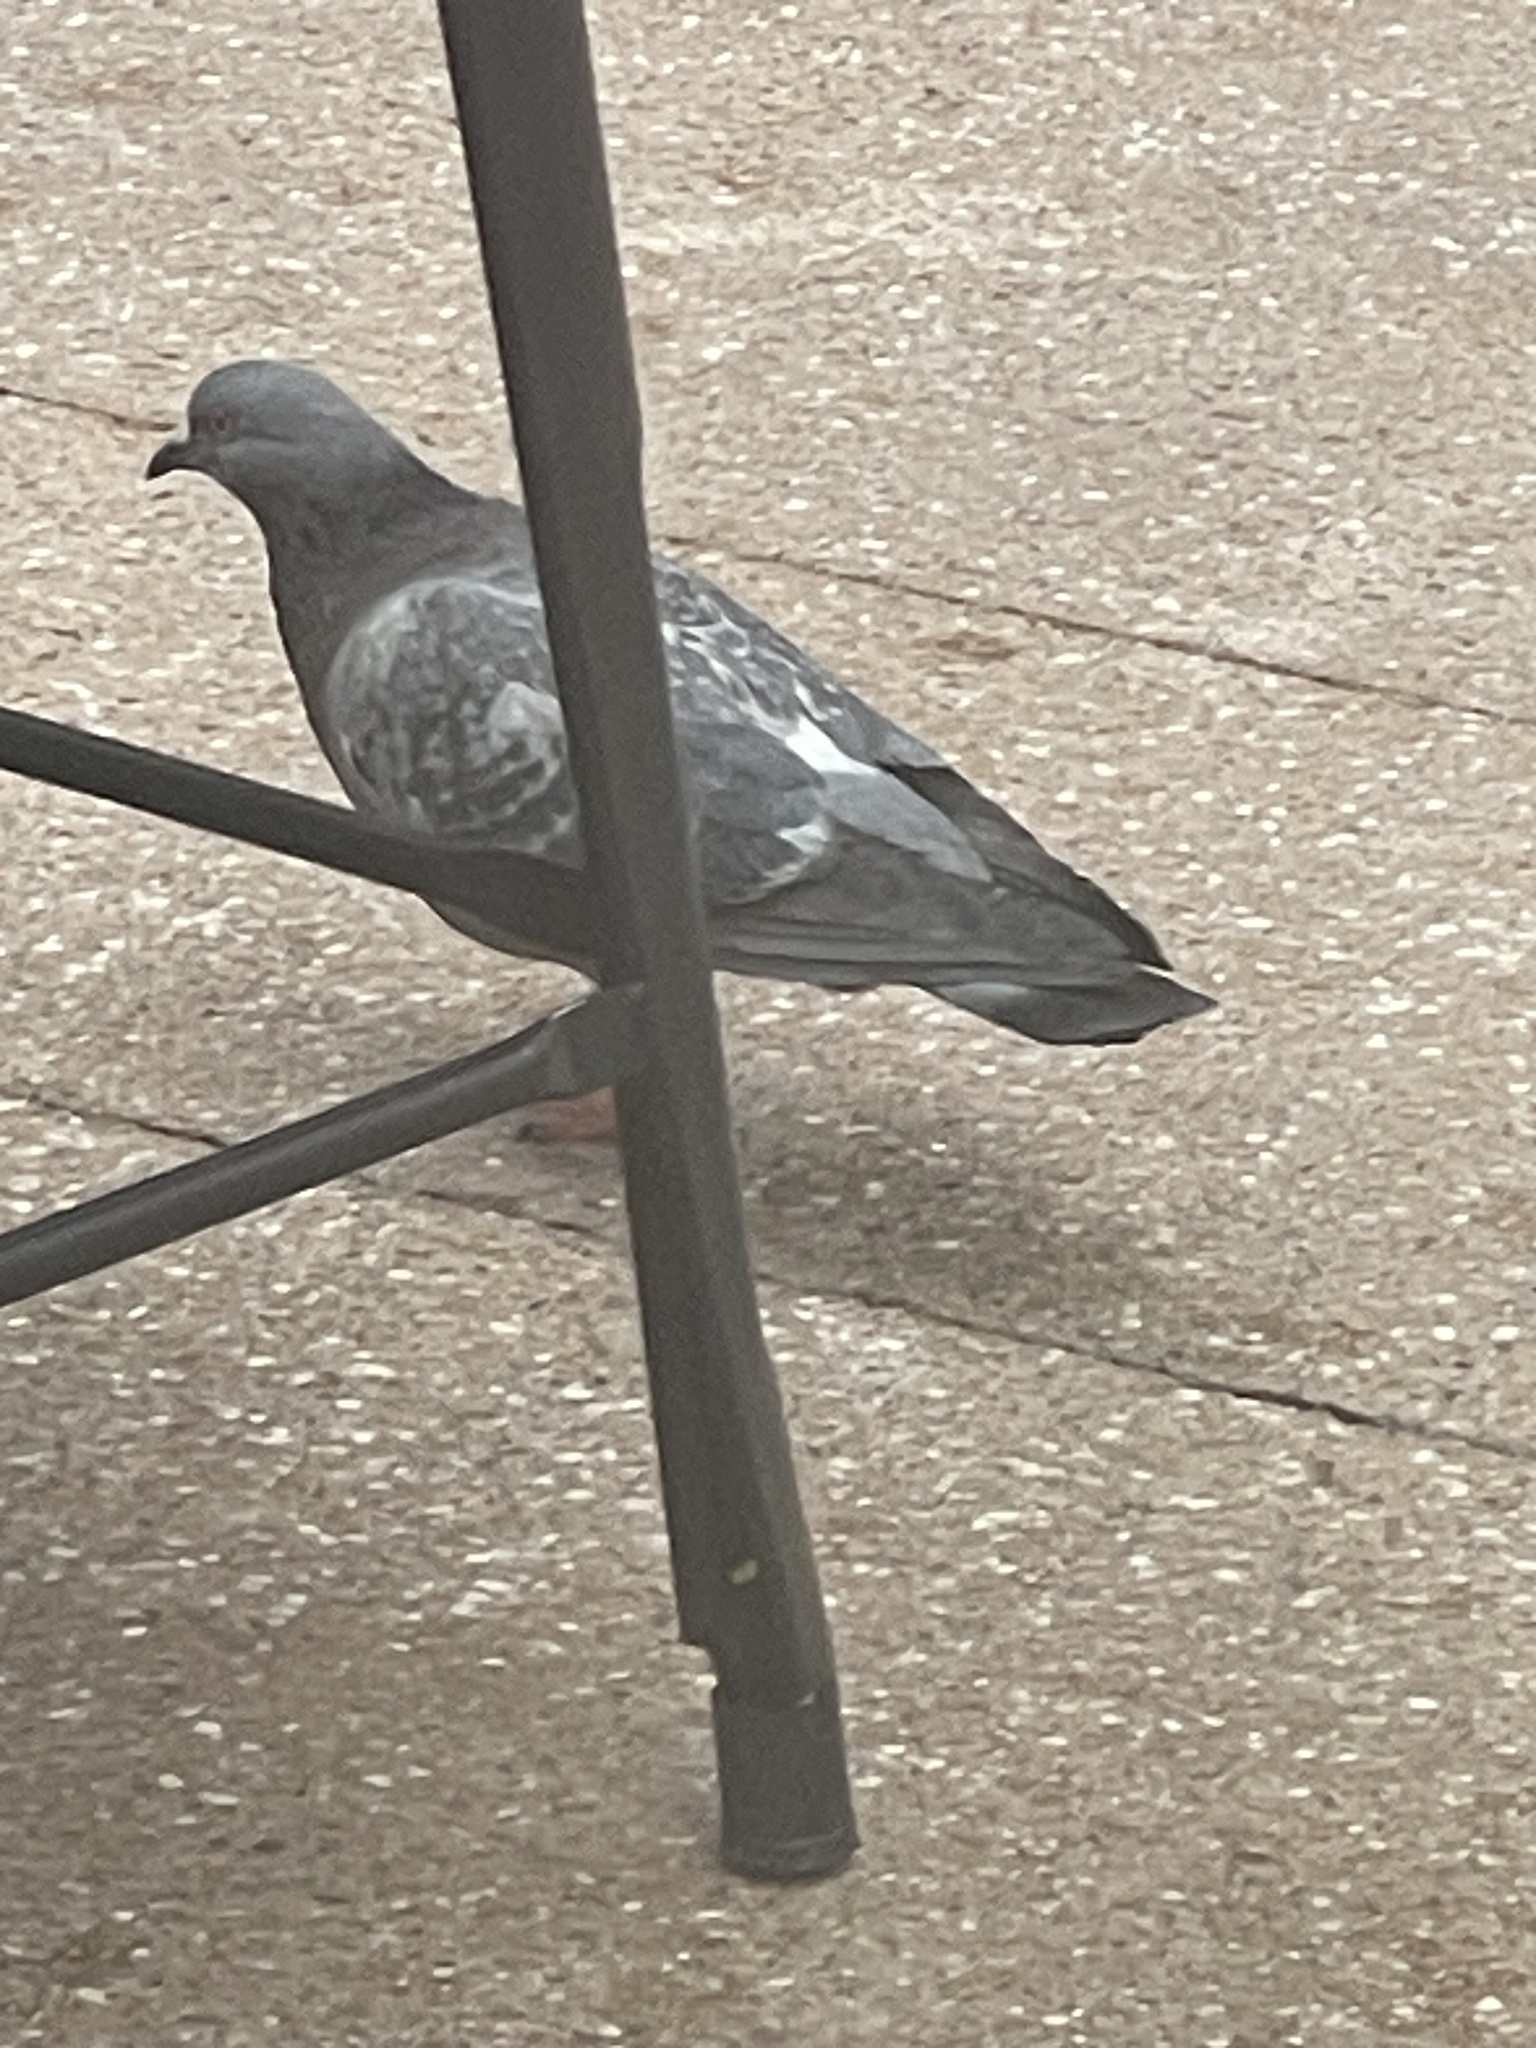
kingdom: Animalia
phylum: Chordata
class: Aves
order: Columbiformes
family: Columbidae
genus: Columba
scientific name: Columba livia
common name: Rock pigeon
